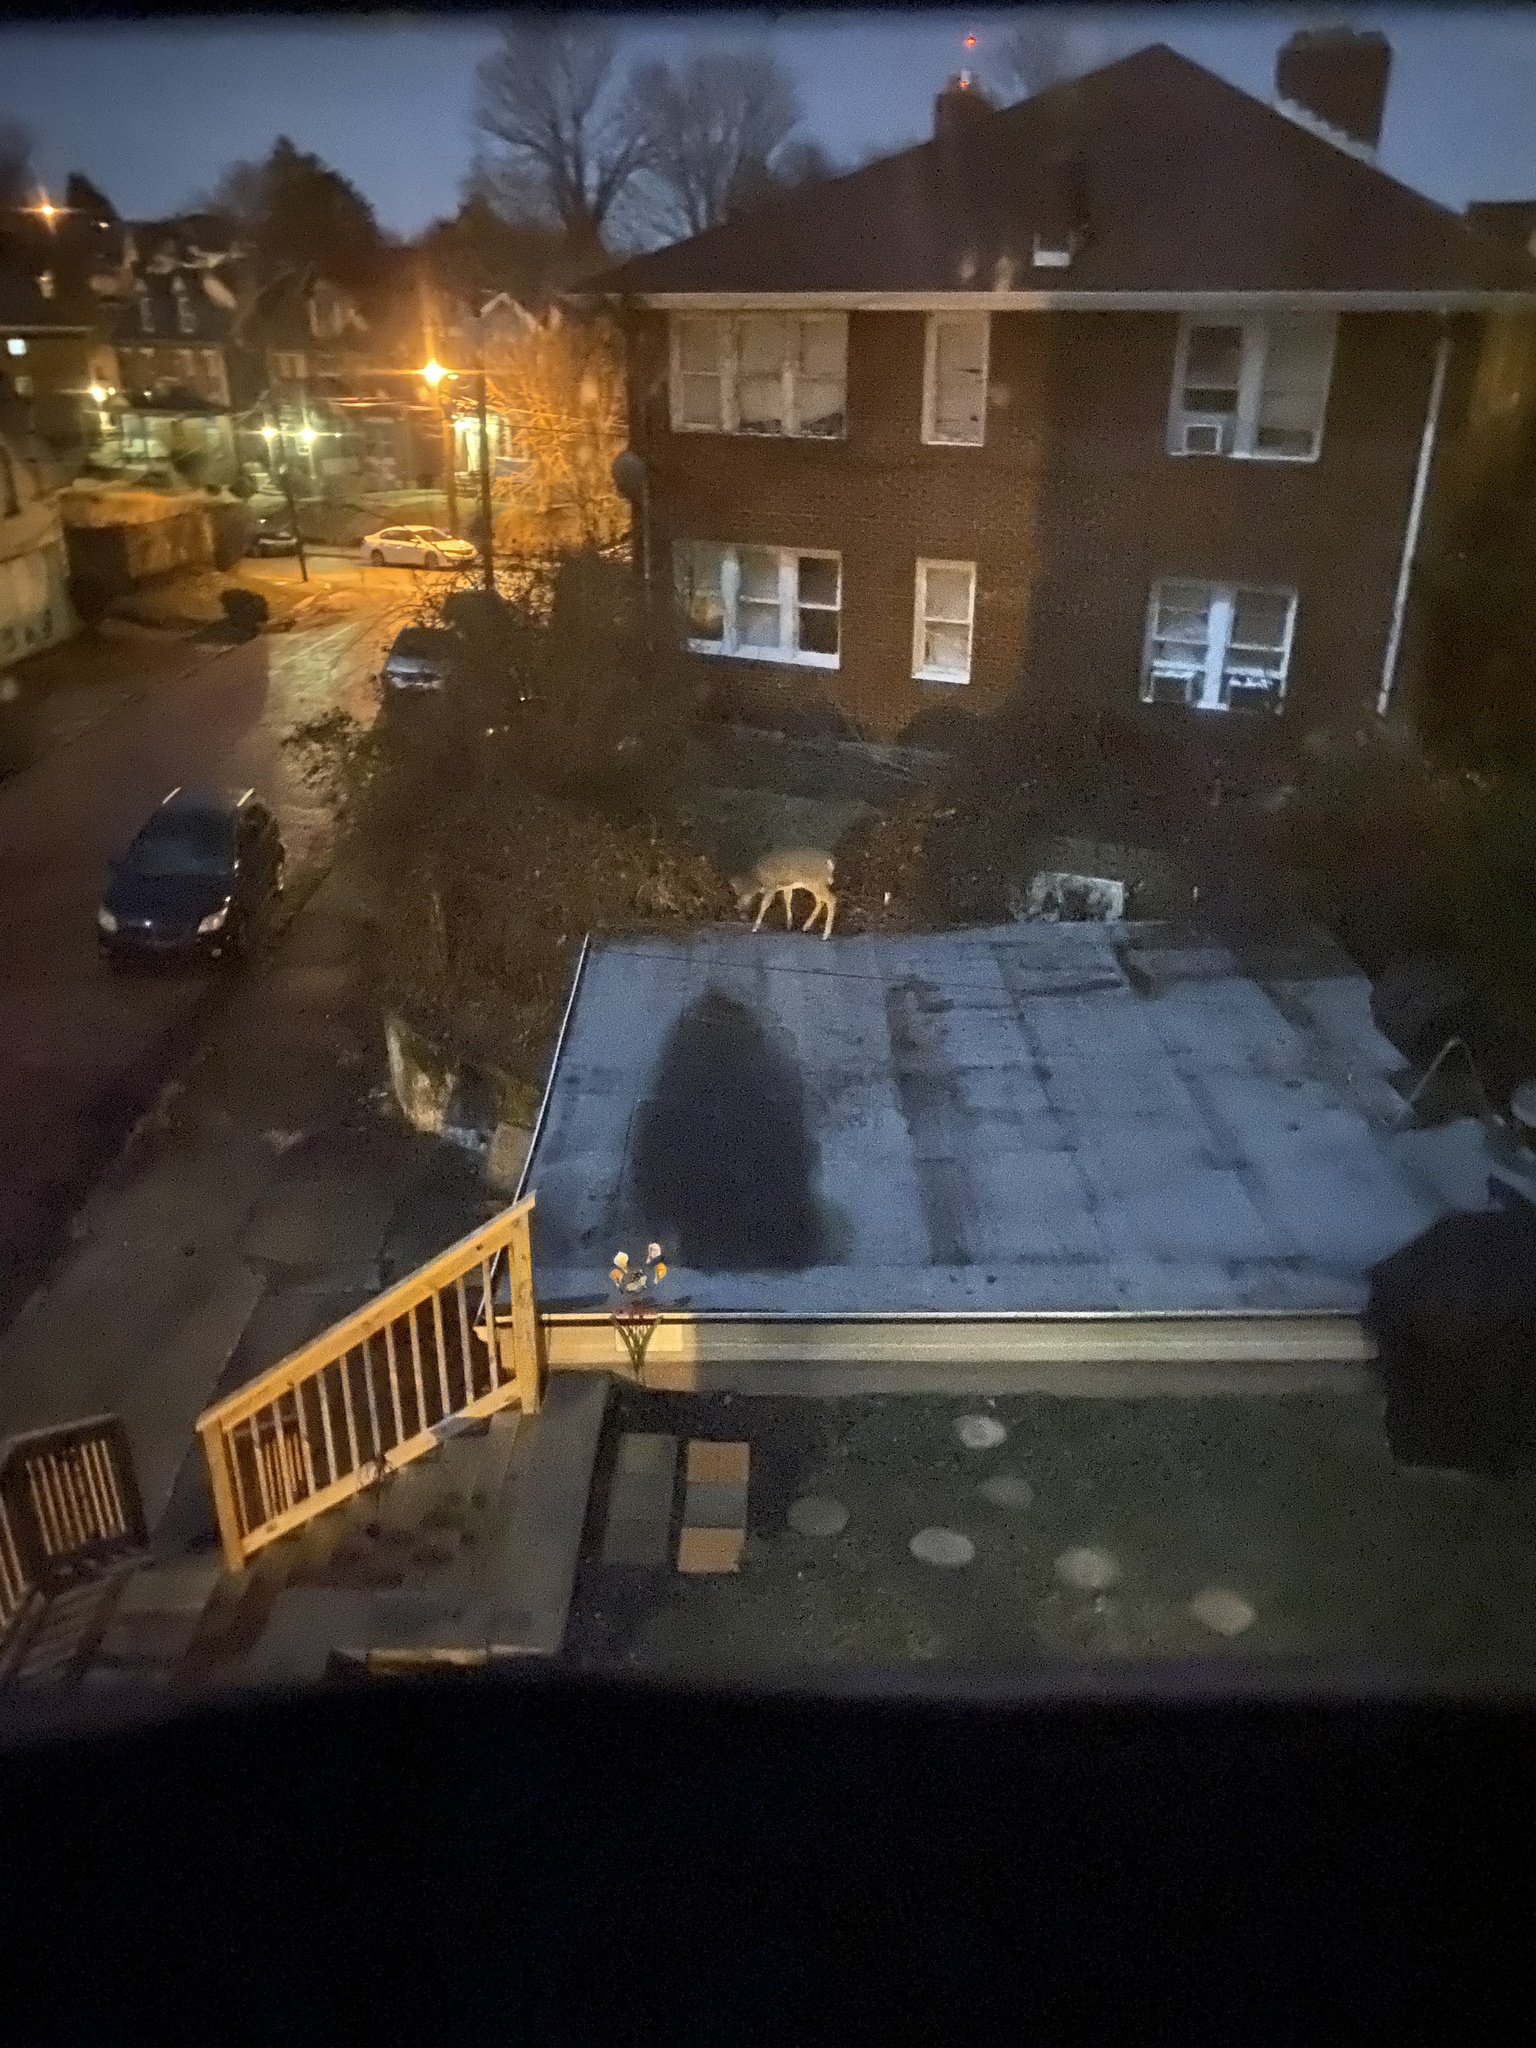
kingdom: Animalia
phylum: Chordata
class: Mammalia
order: Artiodactyla
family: Cervidae
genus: Odocoileus
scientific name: Odocoileus virginianus
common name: White-tailed deer
